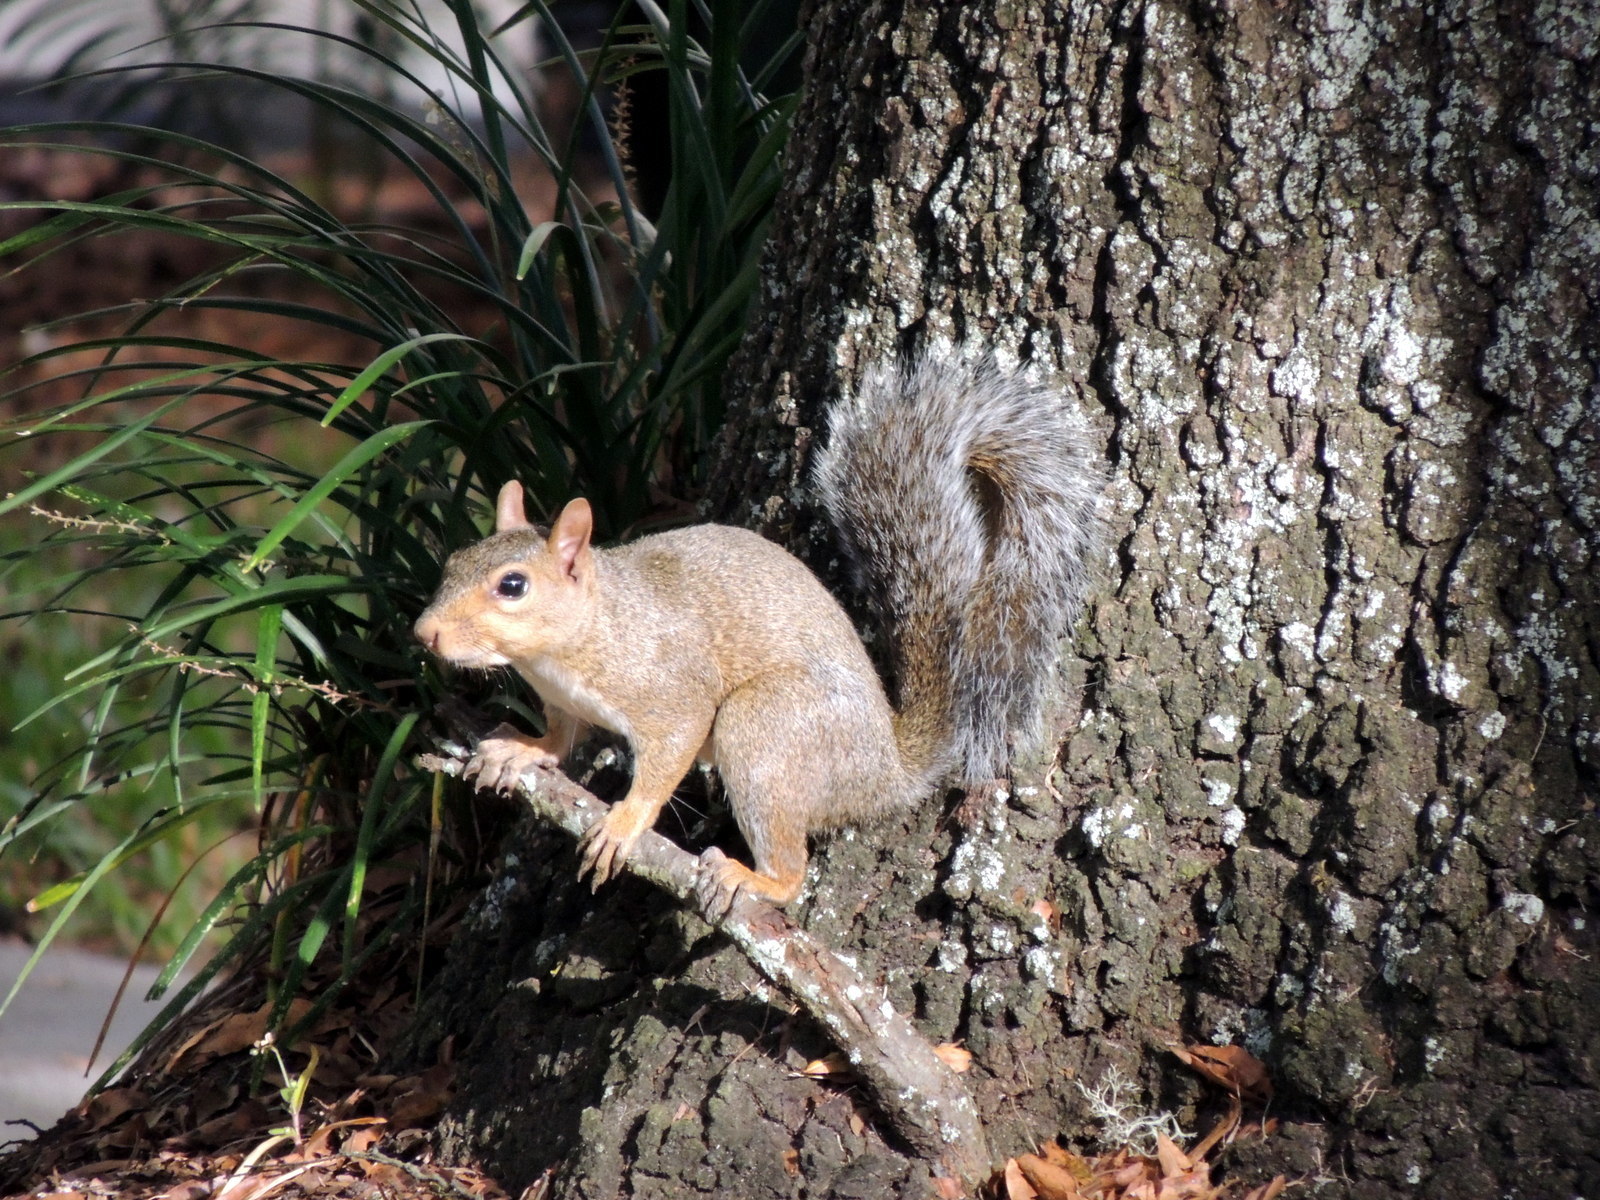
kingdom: Animalia
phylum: Chordata
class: Mammalia
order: Rodentia
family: Sciuridae
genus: Sciurus
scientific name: Sciurus carolinensis
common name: Eastern gray squirrel
